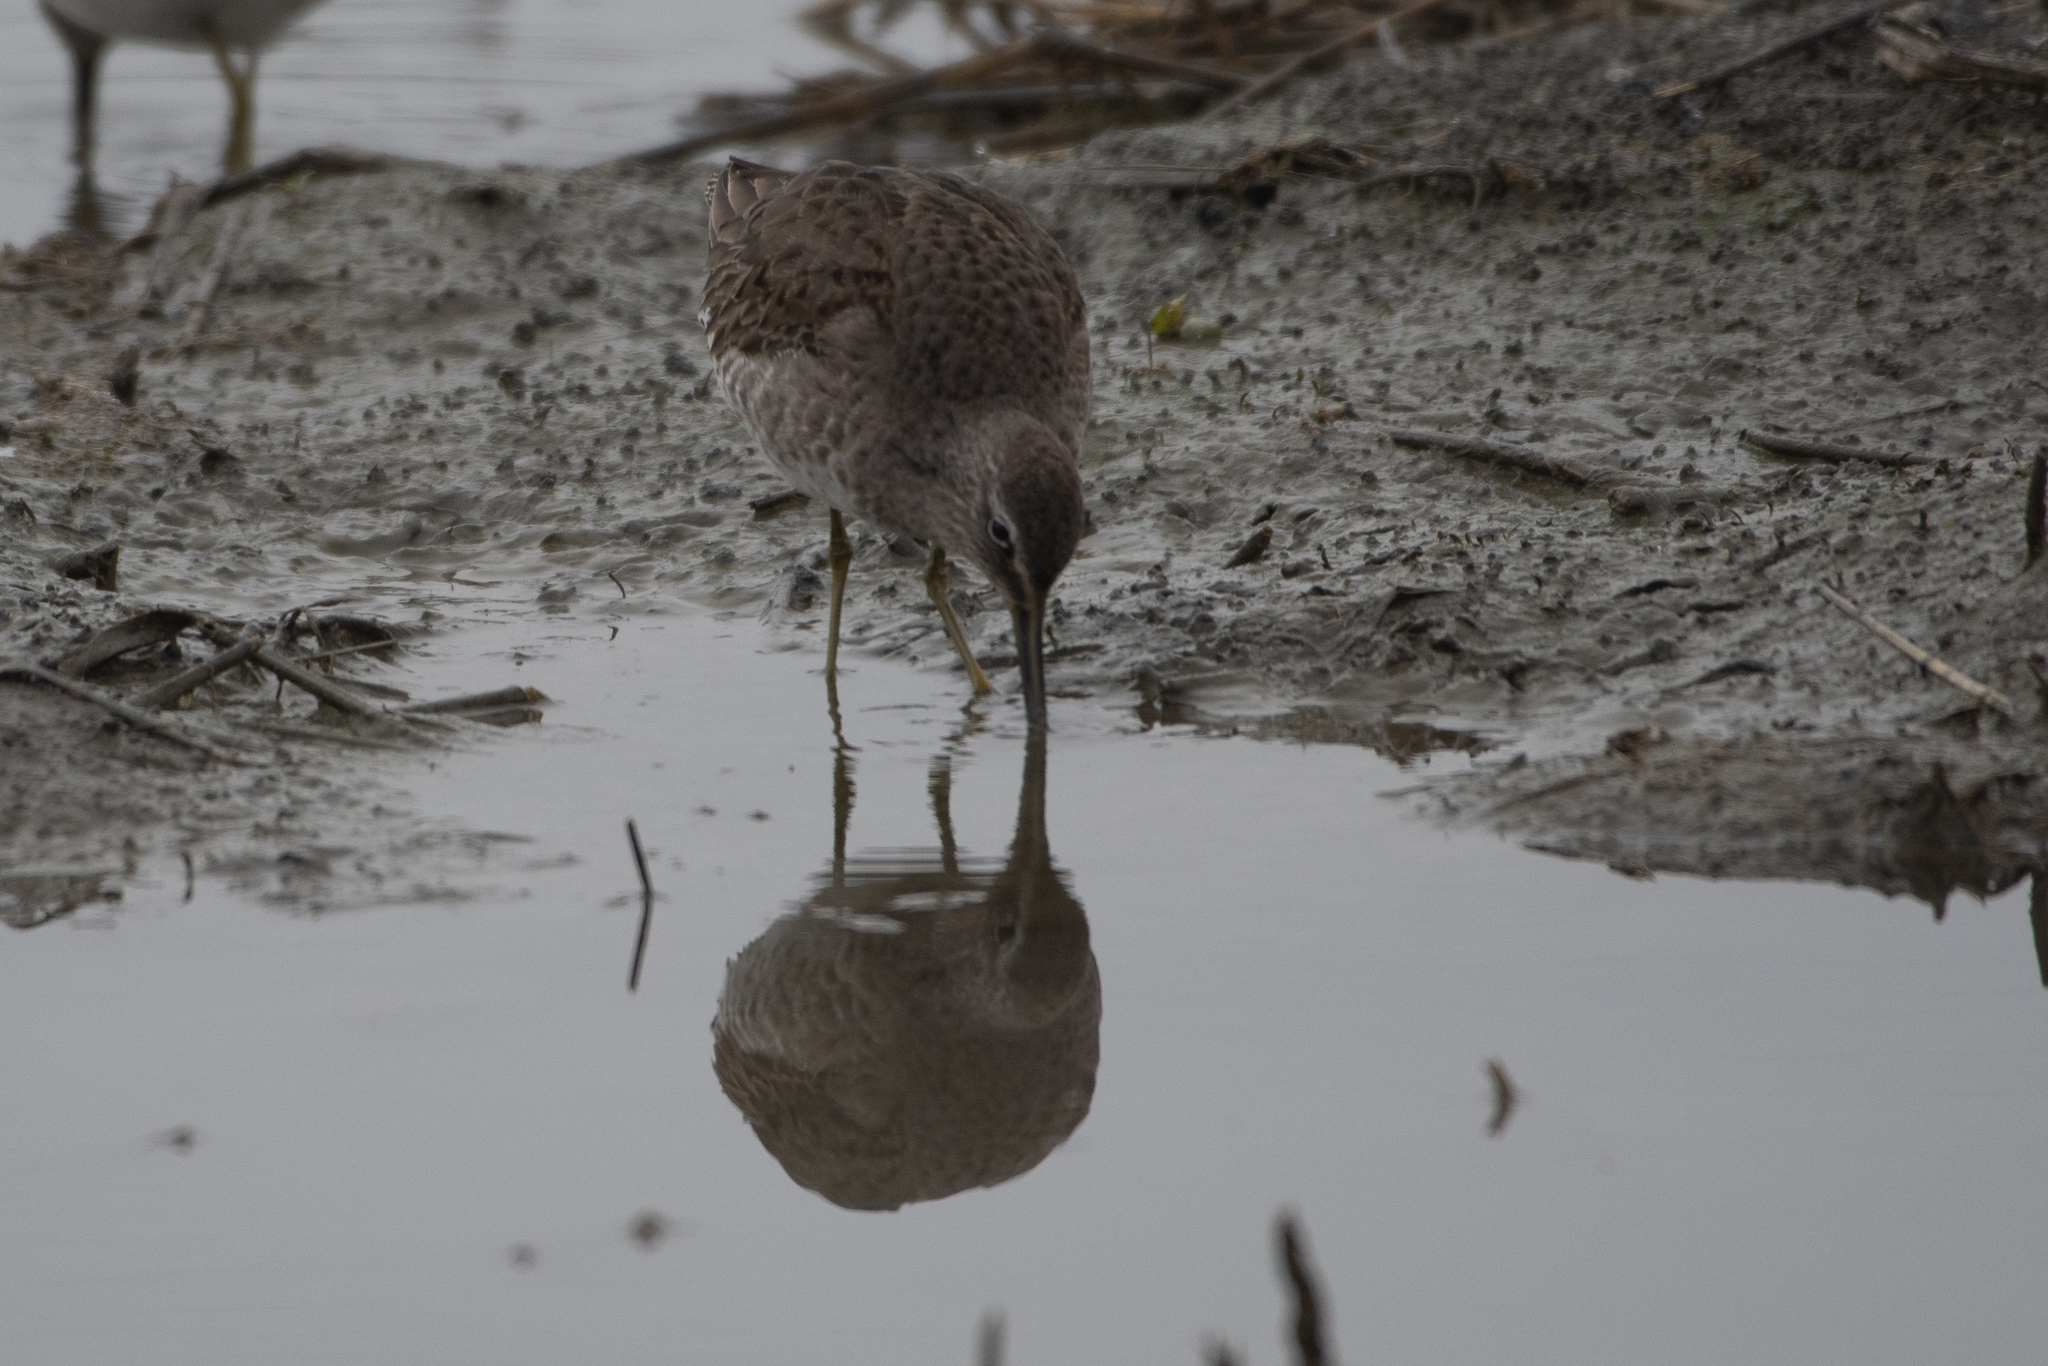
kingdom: Animalia
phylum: Chordata
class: Aves
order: Charadriiformes
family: Scolopacidae
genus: Limnodromus
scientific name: Limnodromus scolopaceus
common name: Long-billed dowitcher
